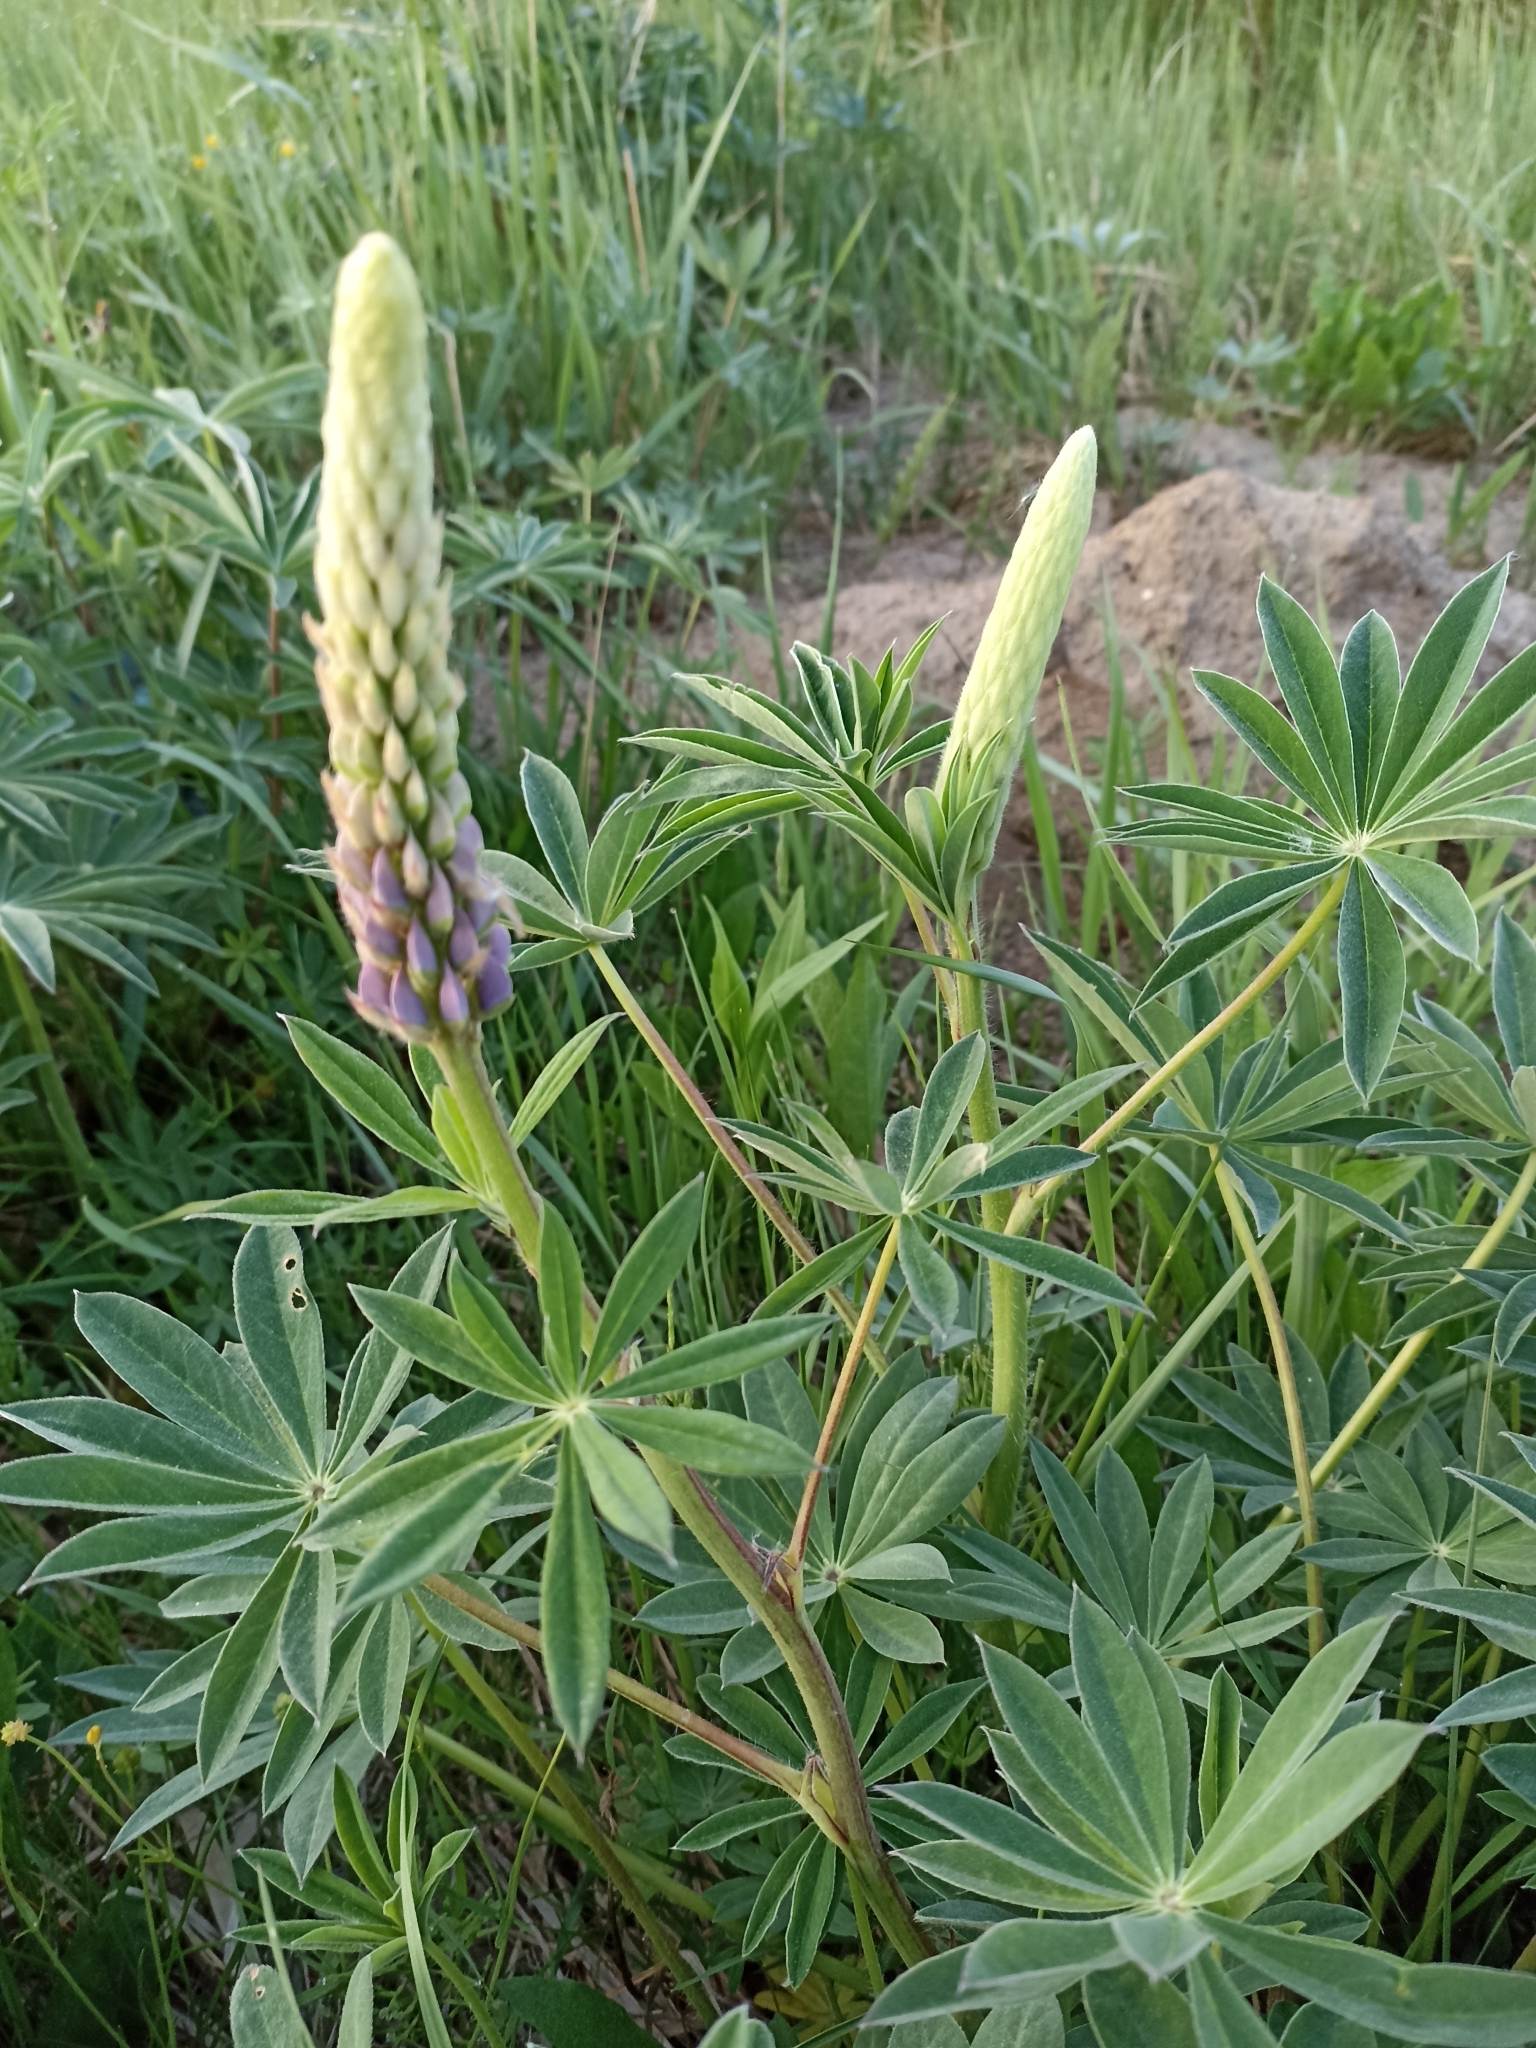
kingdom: Plantae
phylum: Tracheophyta
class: Magnoliopsida
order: Fabales
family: Fabaceae
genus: Lupinus
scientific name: Lupinus polyphyllus
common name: Garden lupin
